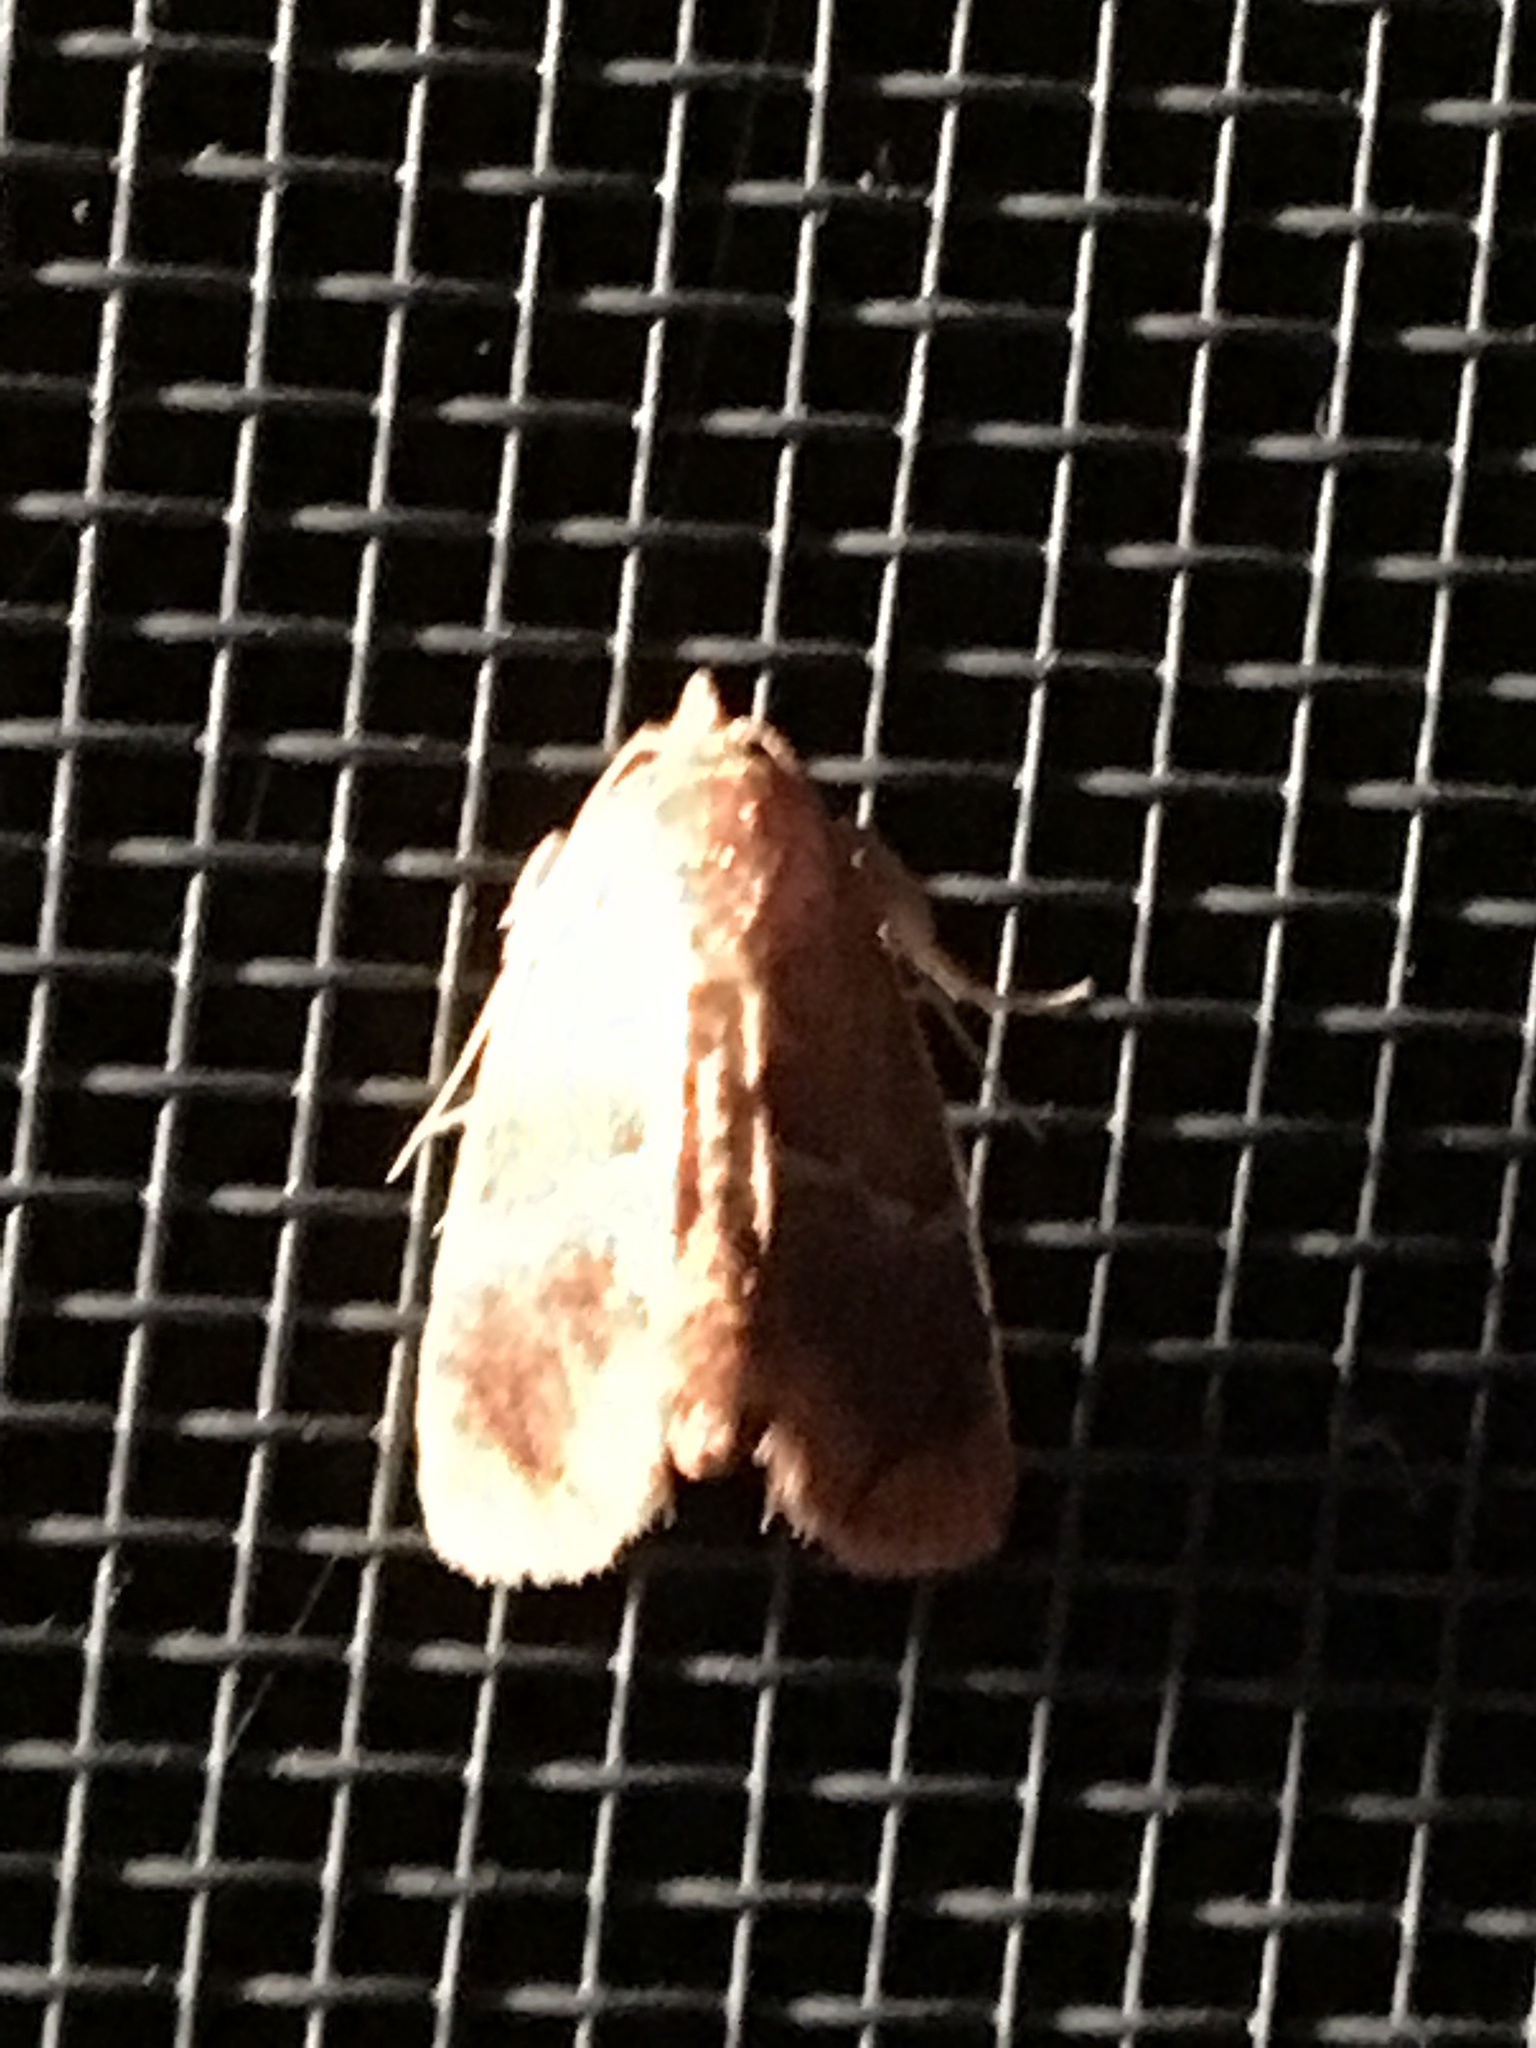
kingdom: Animalia
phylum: Arthropoda
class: Insecta
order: Lepidoptera
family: Limacodidae
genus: Lithacodes
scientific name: Lithacodes fasciola
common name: Yellow-shouldered slug moth
